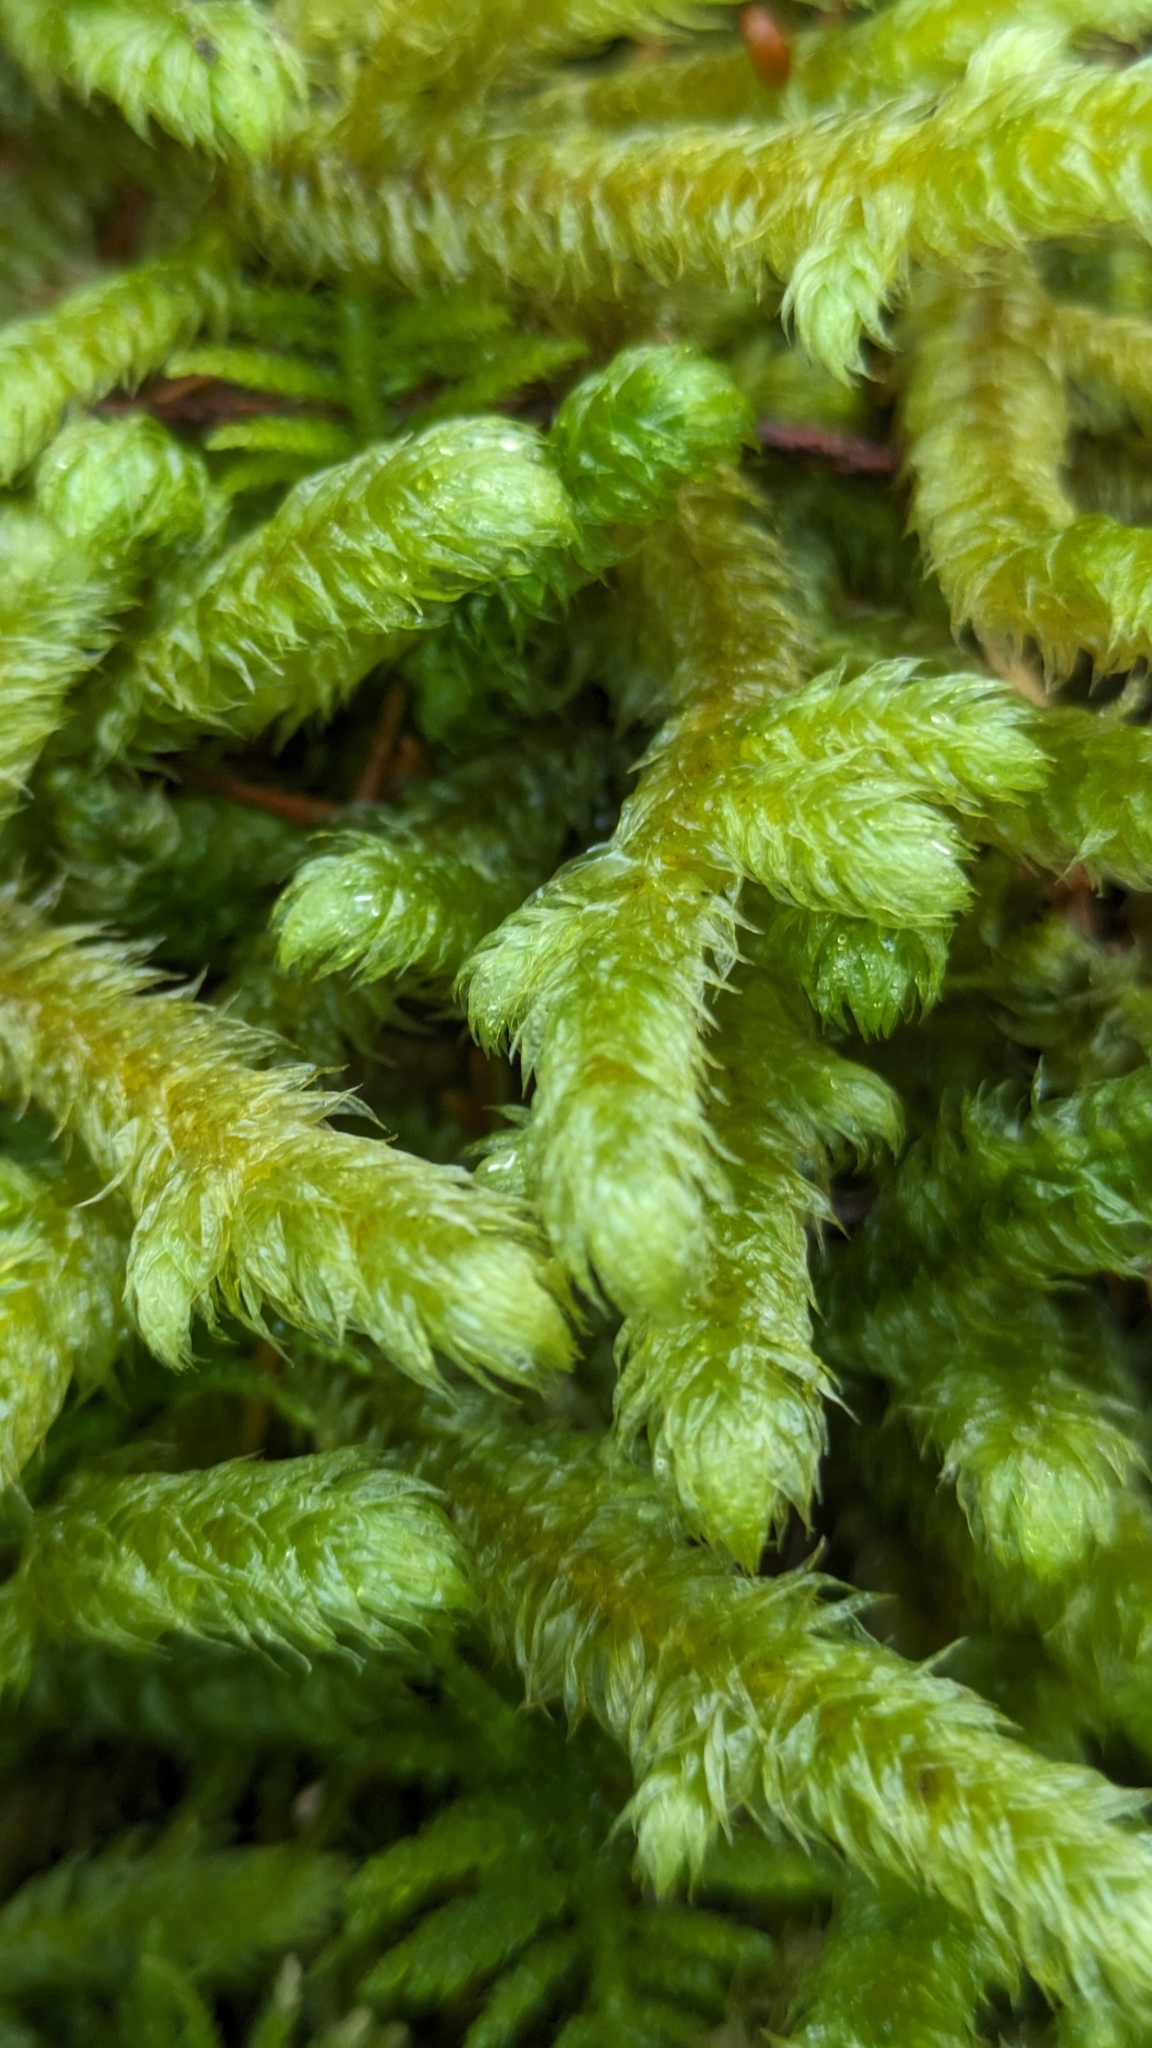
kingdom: Plantae
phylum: Bryophyta
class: Bryopsida
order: Hypnales
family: Hylocomiaceae
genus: Rhytidiopsis
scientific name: Rhytidiopsis robusta
